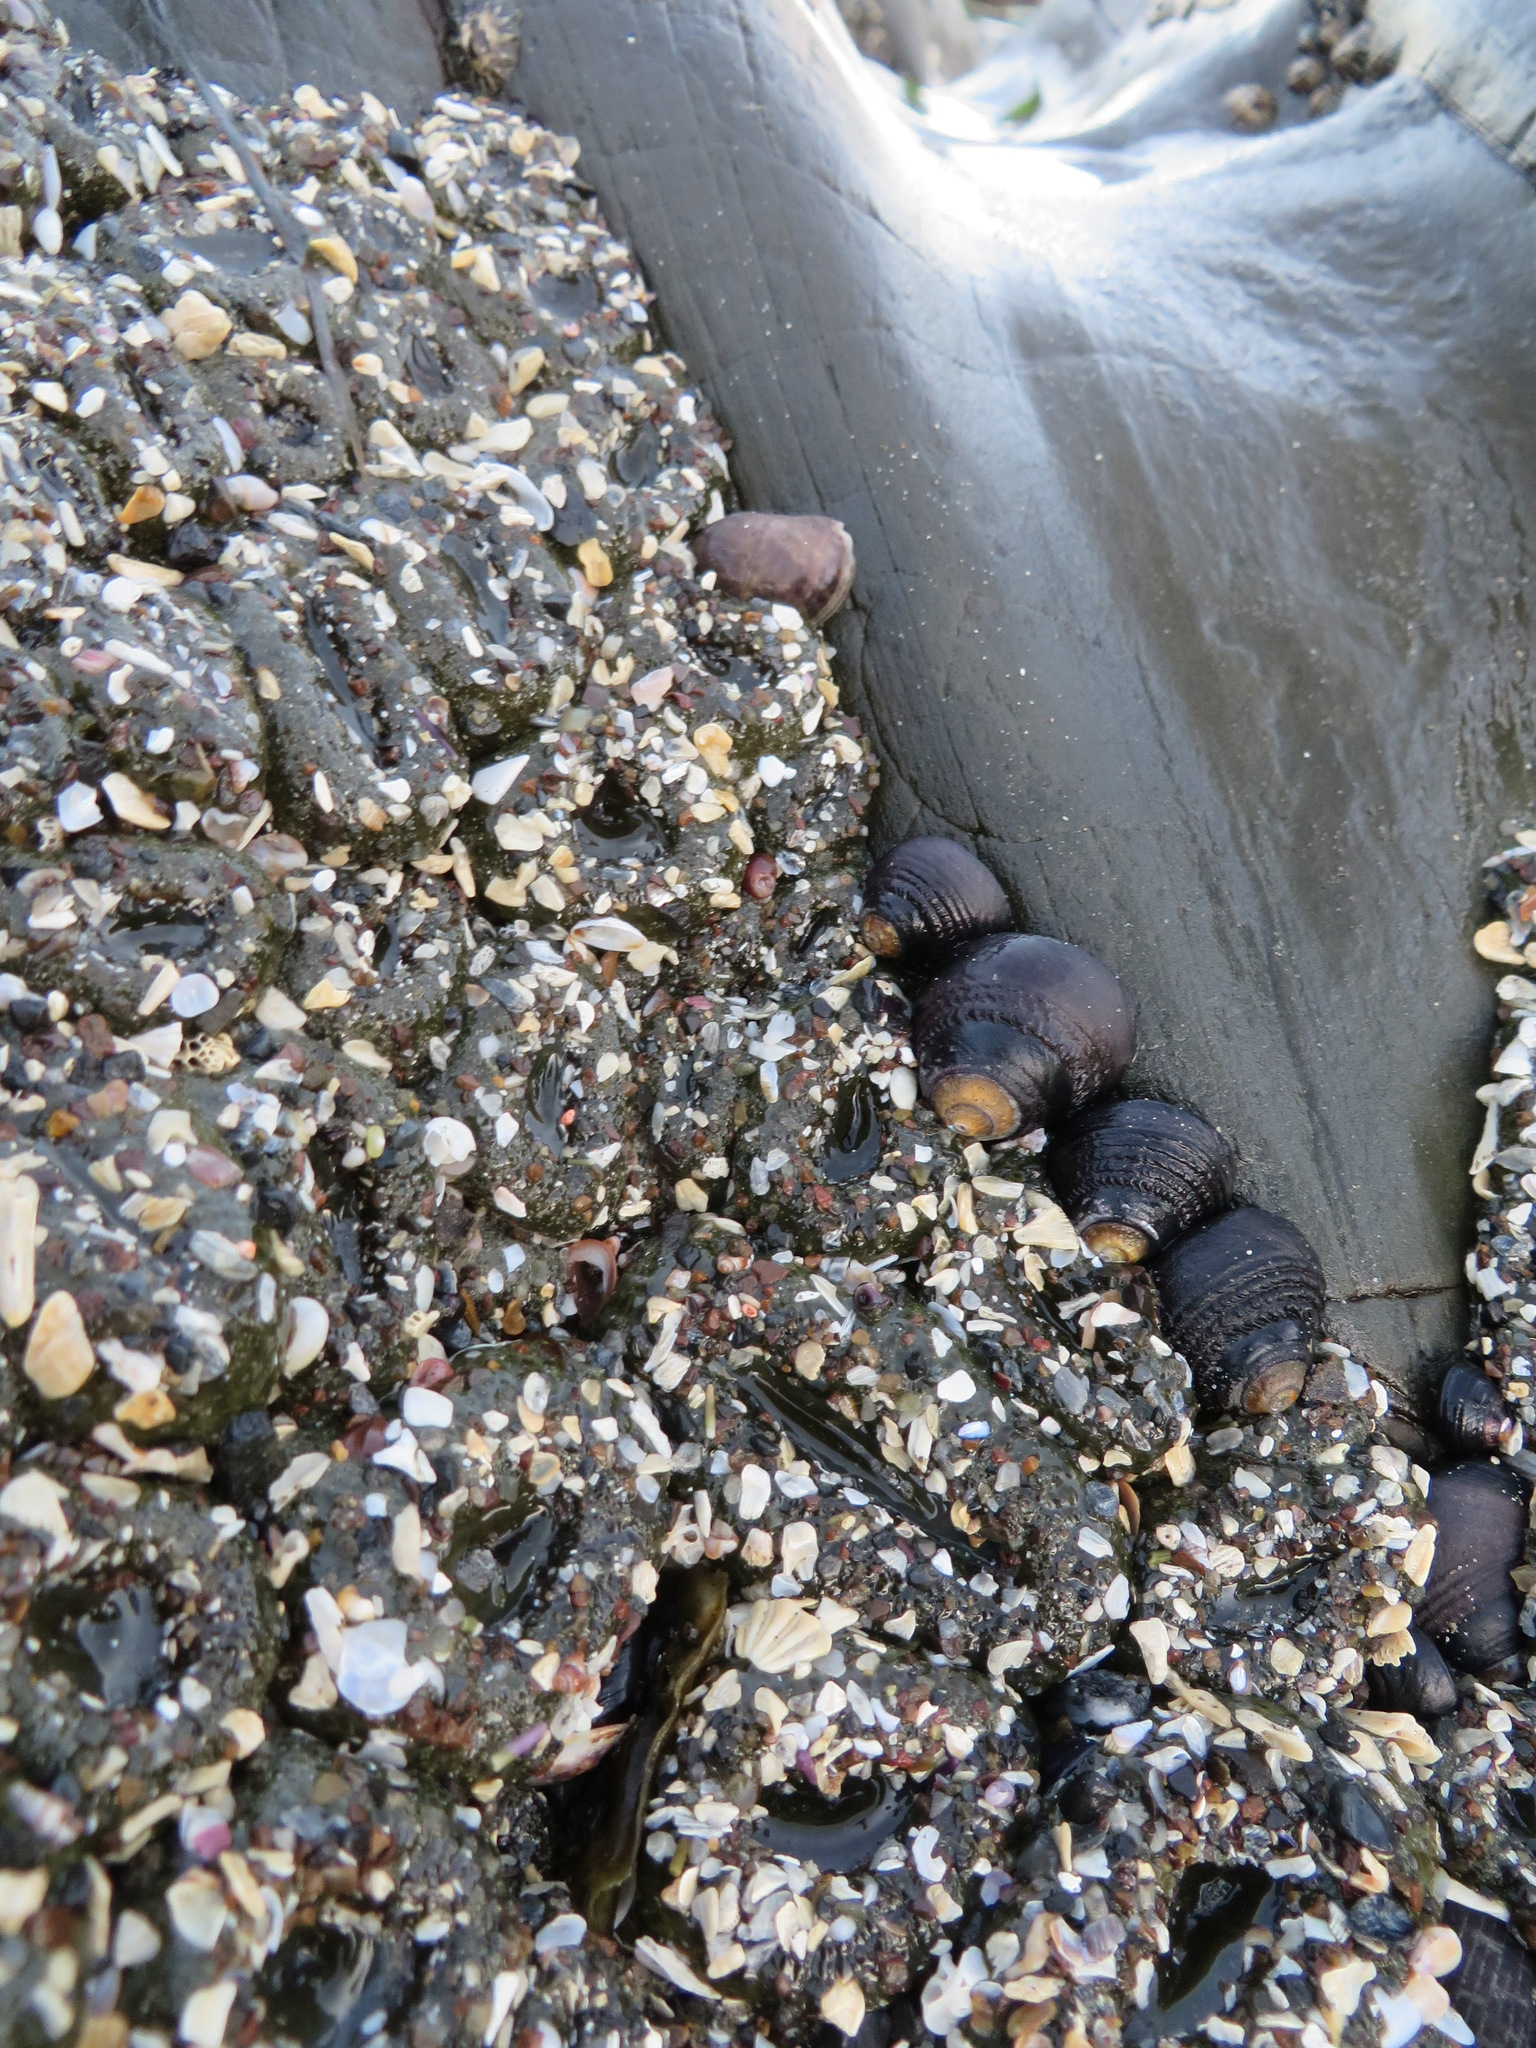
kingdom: Animalia
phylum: Mollusca
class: Gastropoda
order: Trochida
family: Tegulidae
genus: Tegula
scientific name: Tegula funebralis
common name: Black tegula
